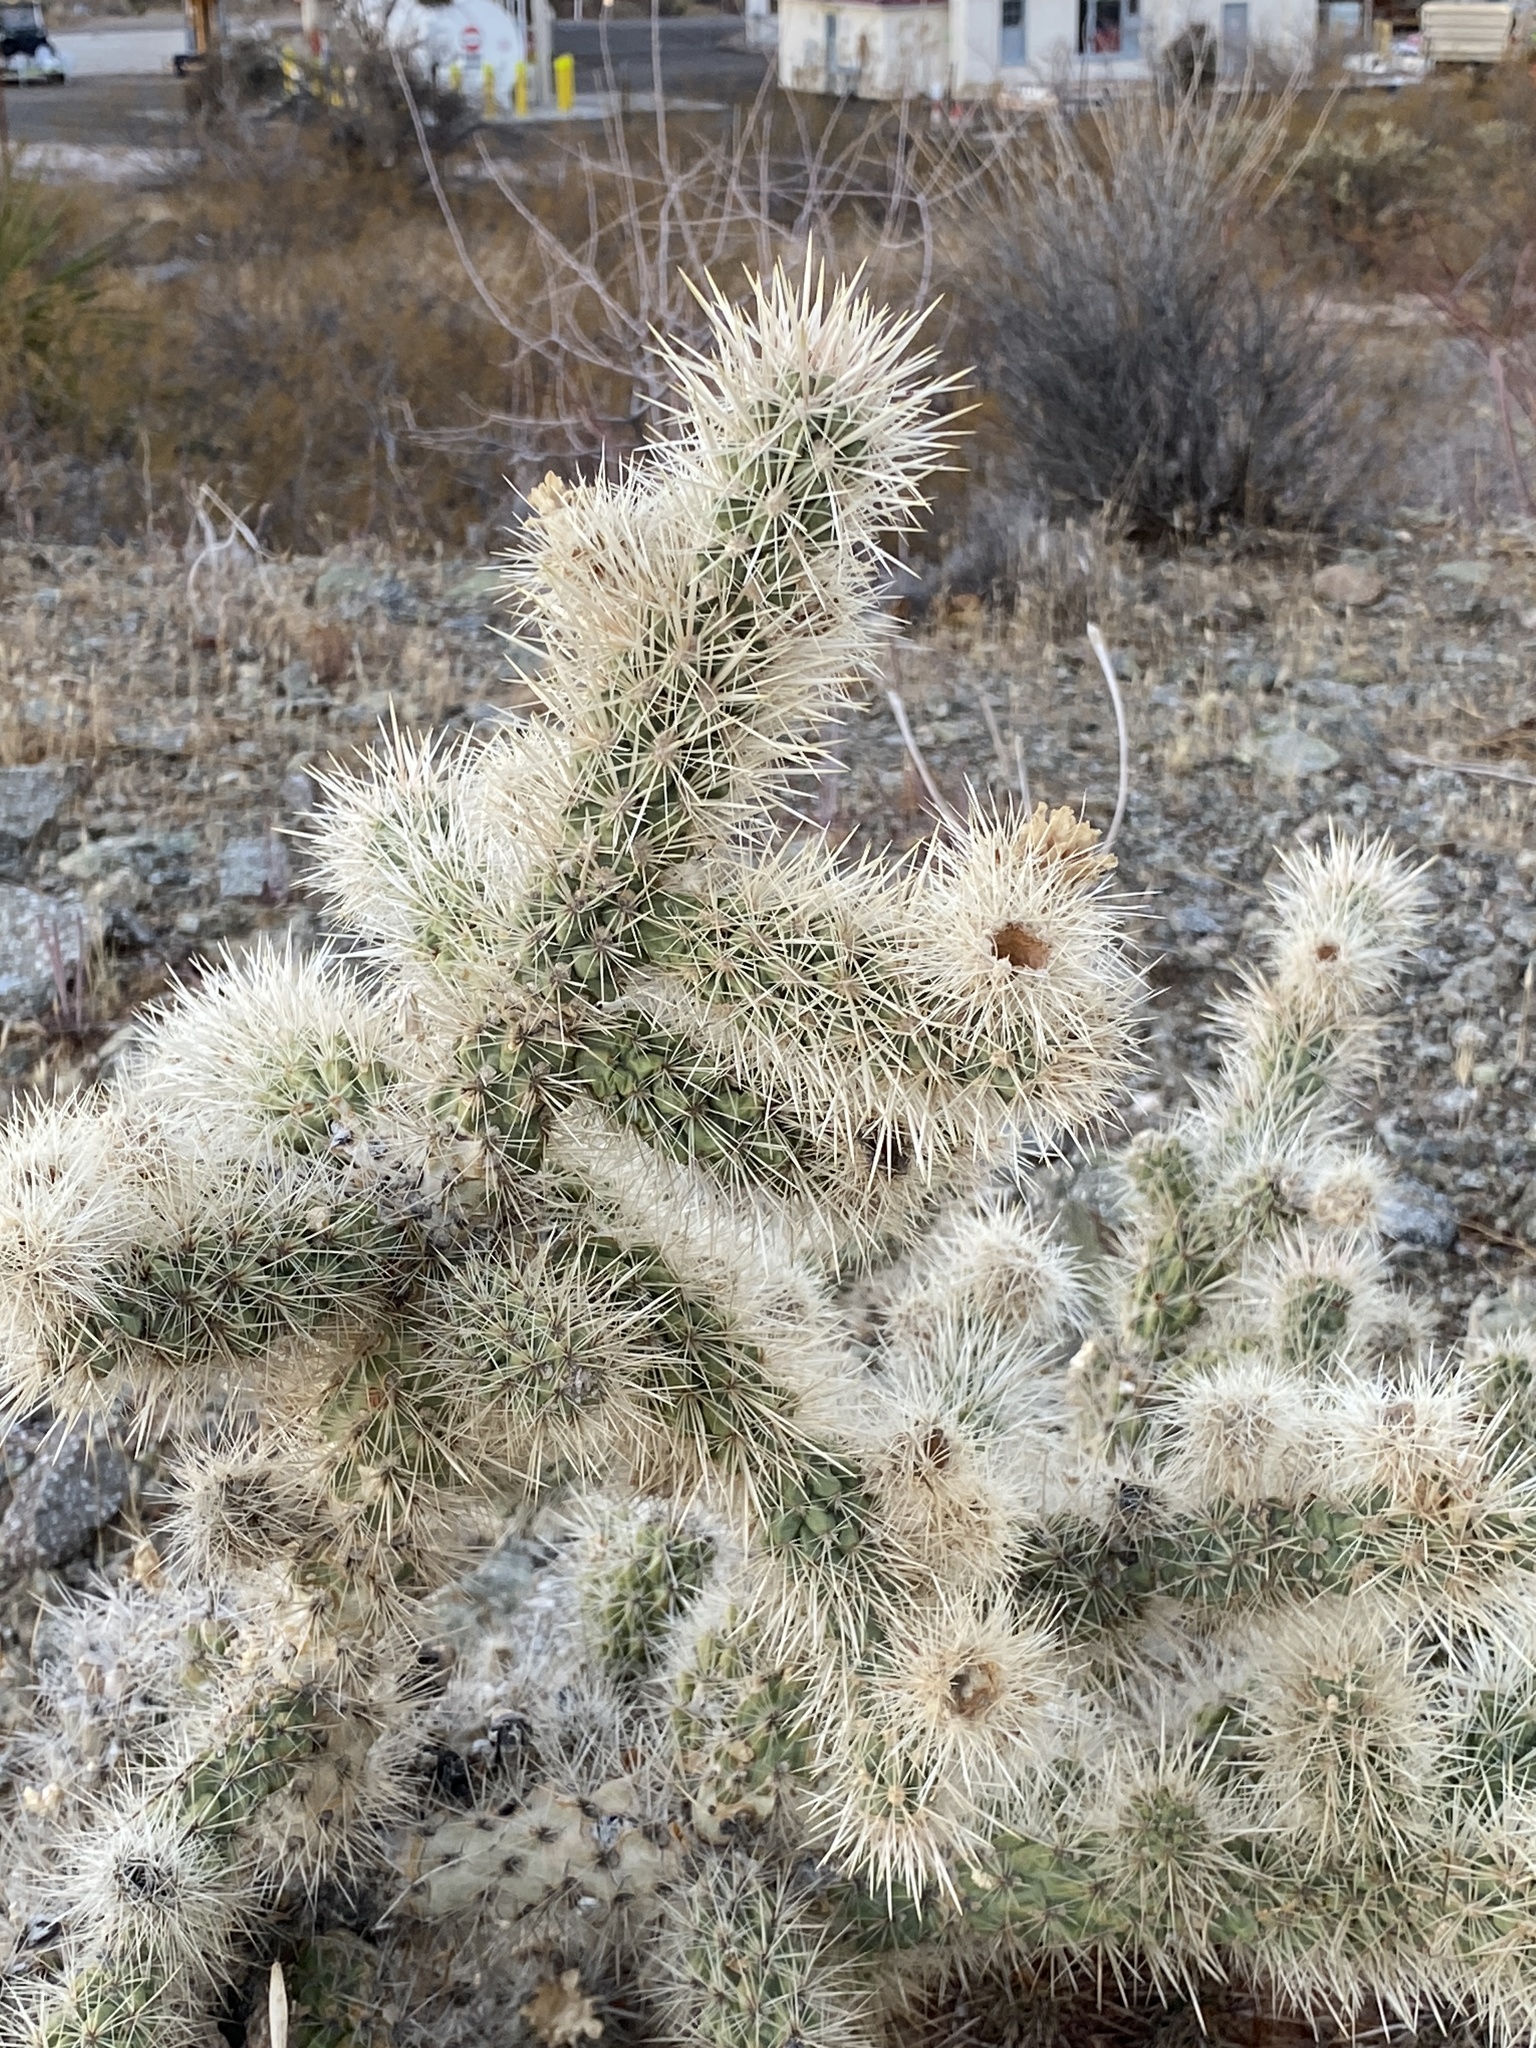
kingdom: Plantae
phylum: Tracheophyta
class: Magnoliopsida
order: Caryophyllales
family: Cactaceae
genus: Cylindropuntia
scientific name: Cylindropuntia echinocarpa
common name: Ground cholla
